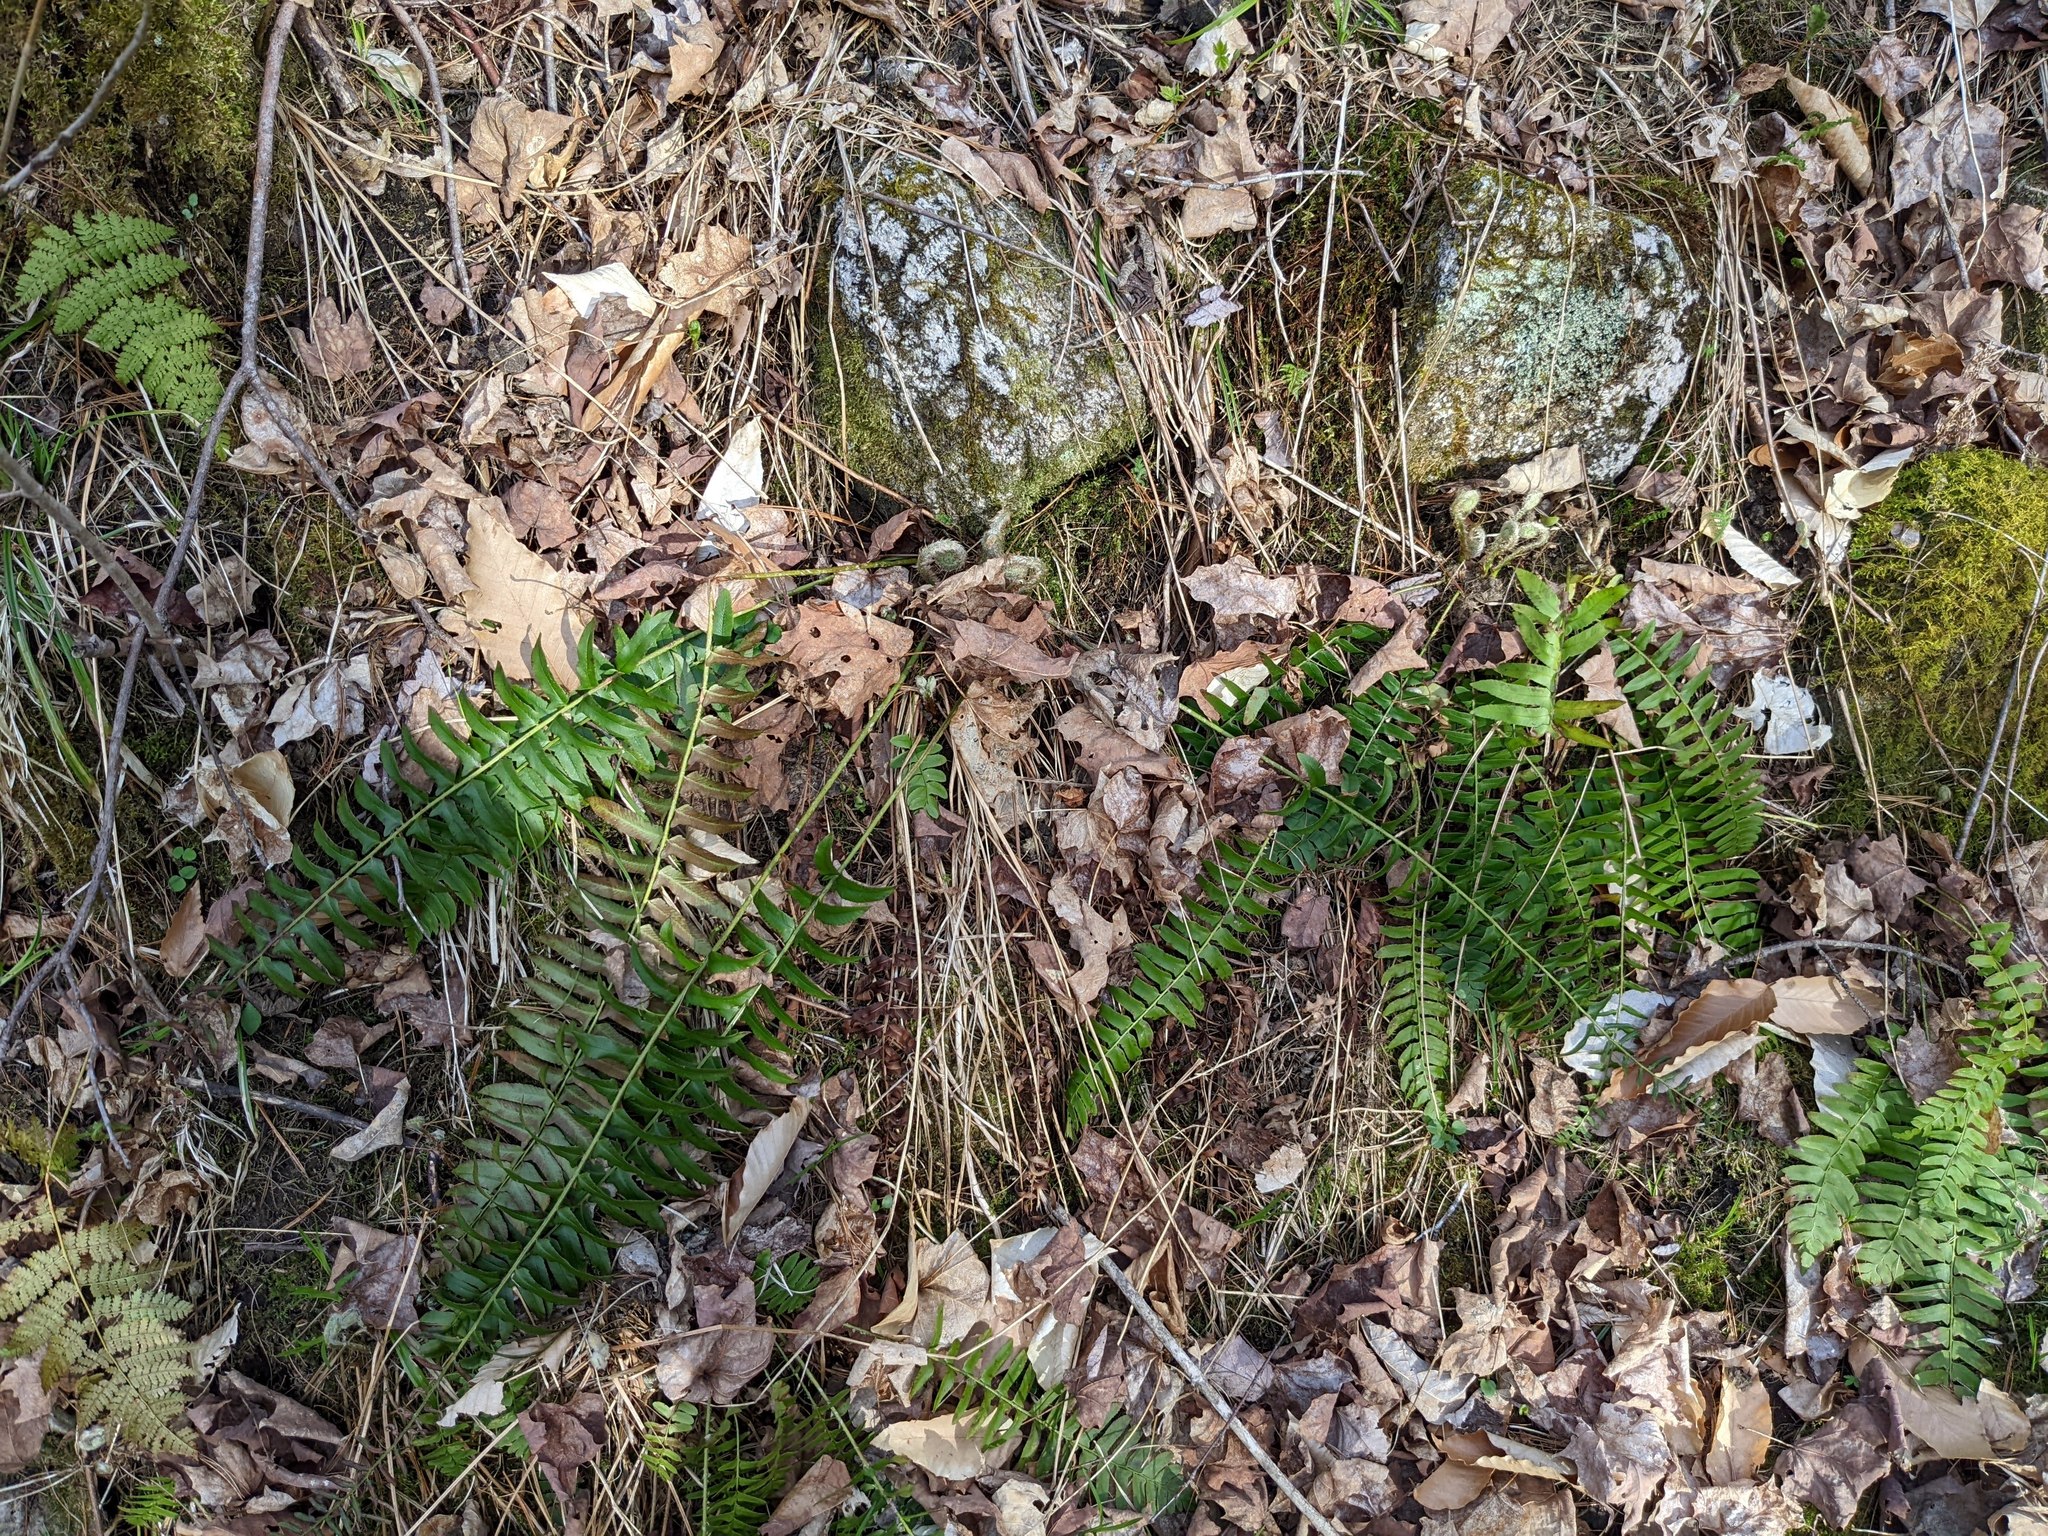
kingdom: Plantae
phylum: Tracheophyta
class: Polypodiopsida
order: Polypodiales
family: Dryopteridaceae
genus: Polystichum
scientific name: Polystichum acrostichoides
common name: Christmas fern
